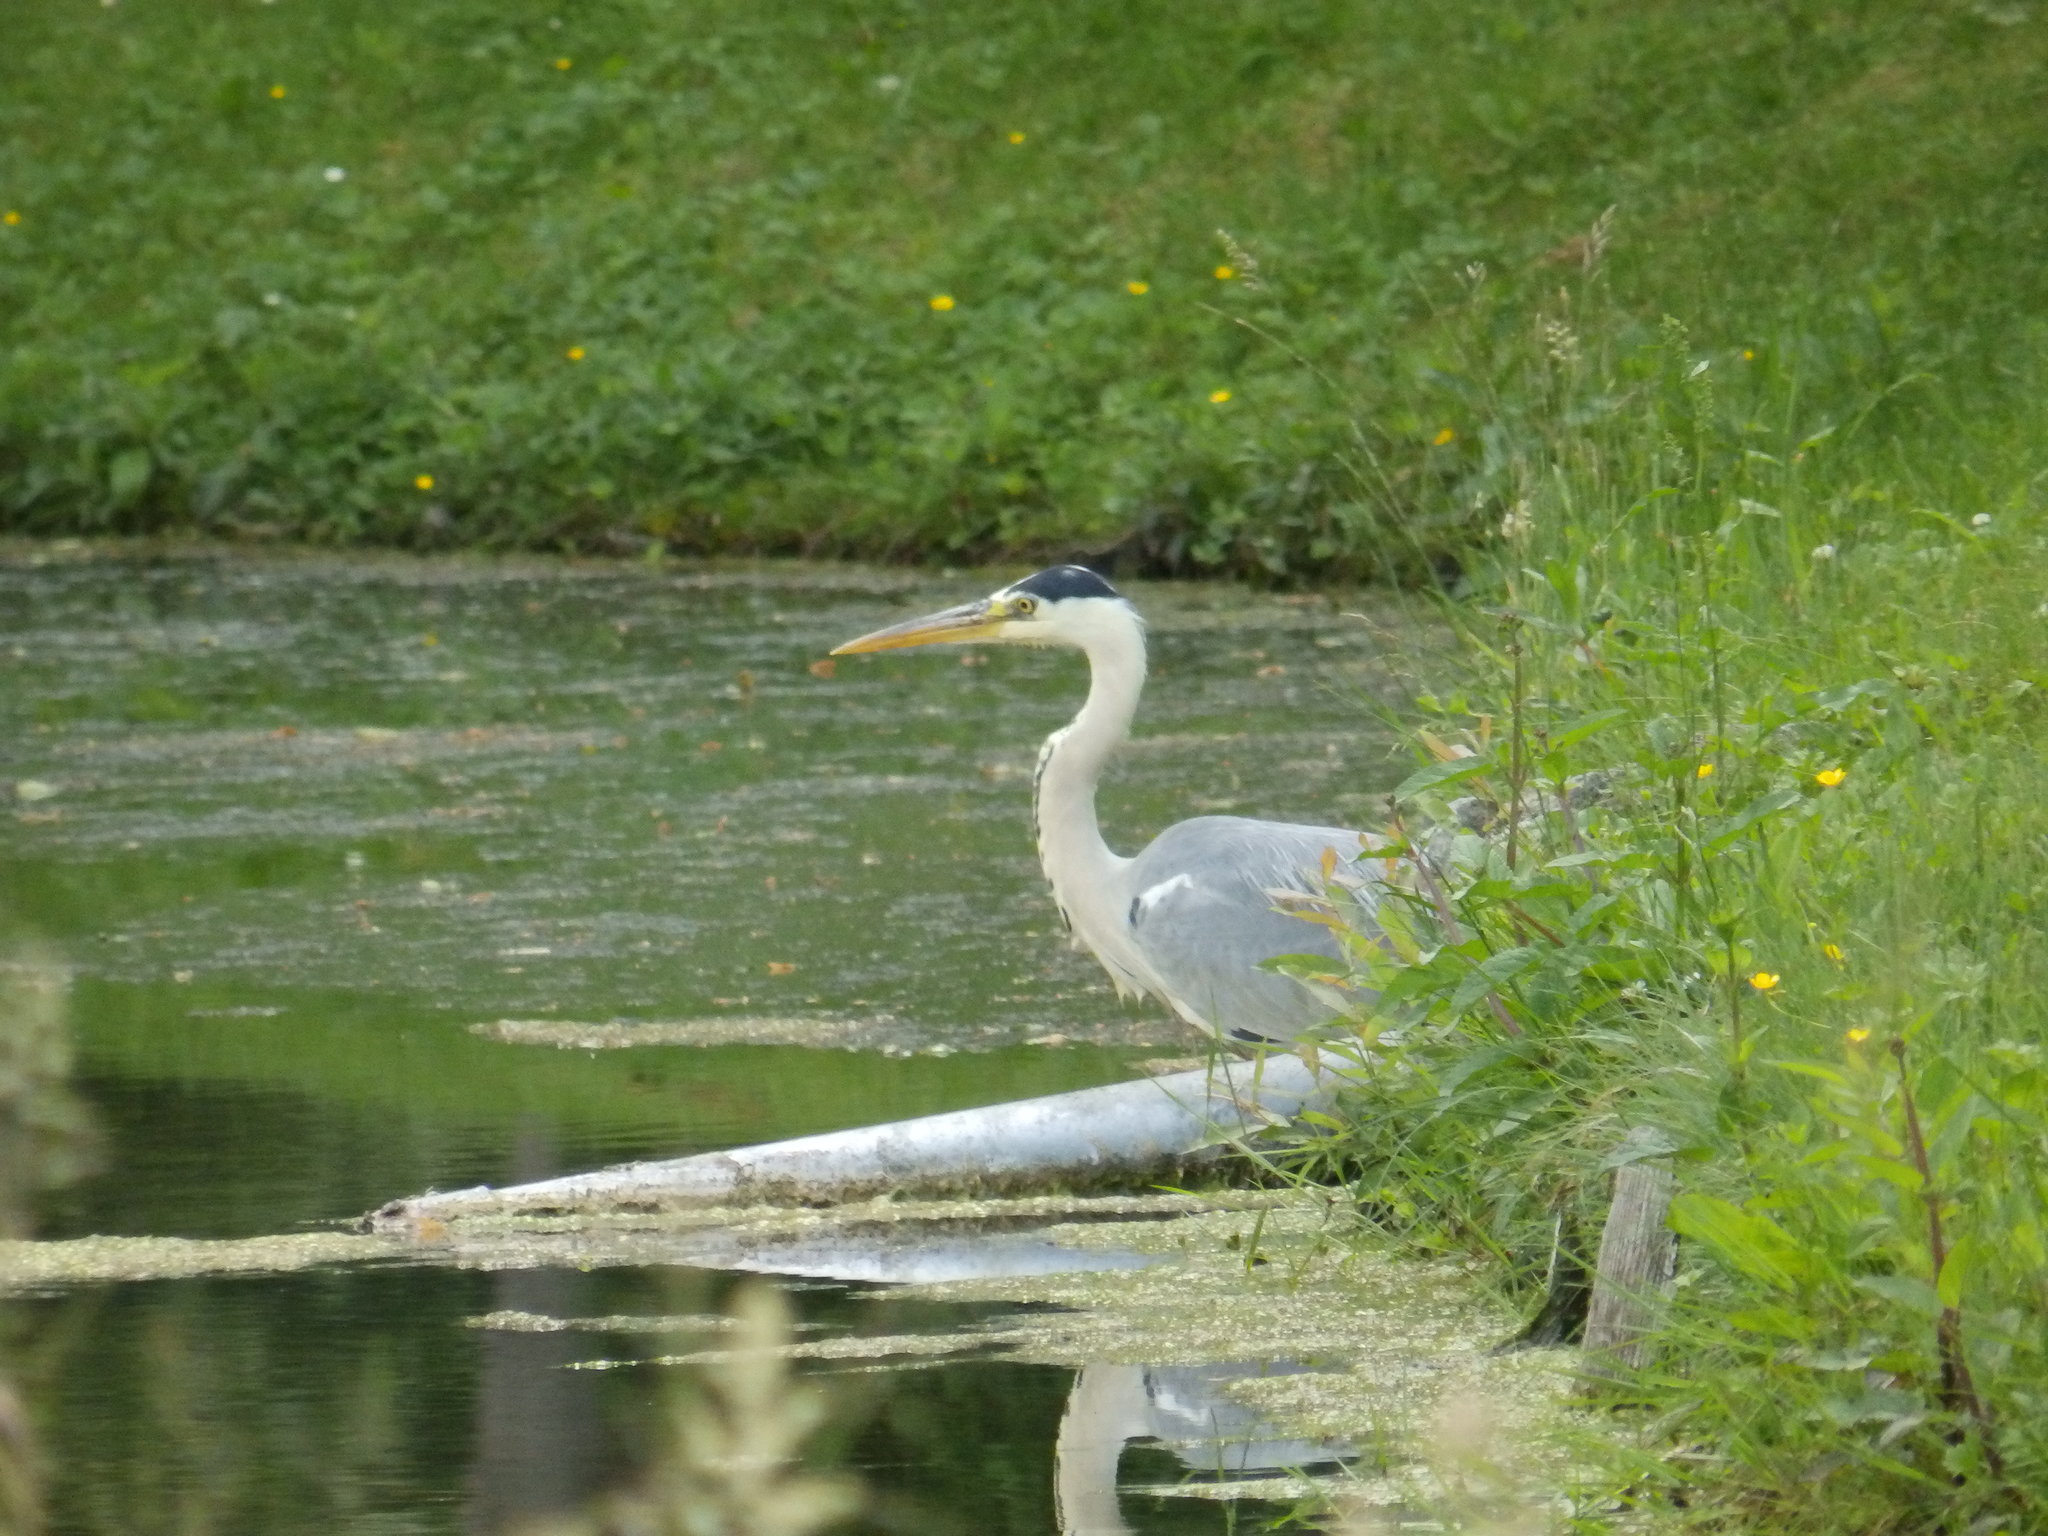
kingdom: Animalia
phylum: Chordata
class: Aves
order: Pelecaniformes
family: Ardeidae
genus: Ardea
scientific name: Ardea cinerea
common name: Grey heron
